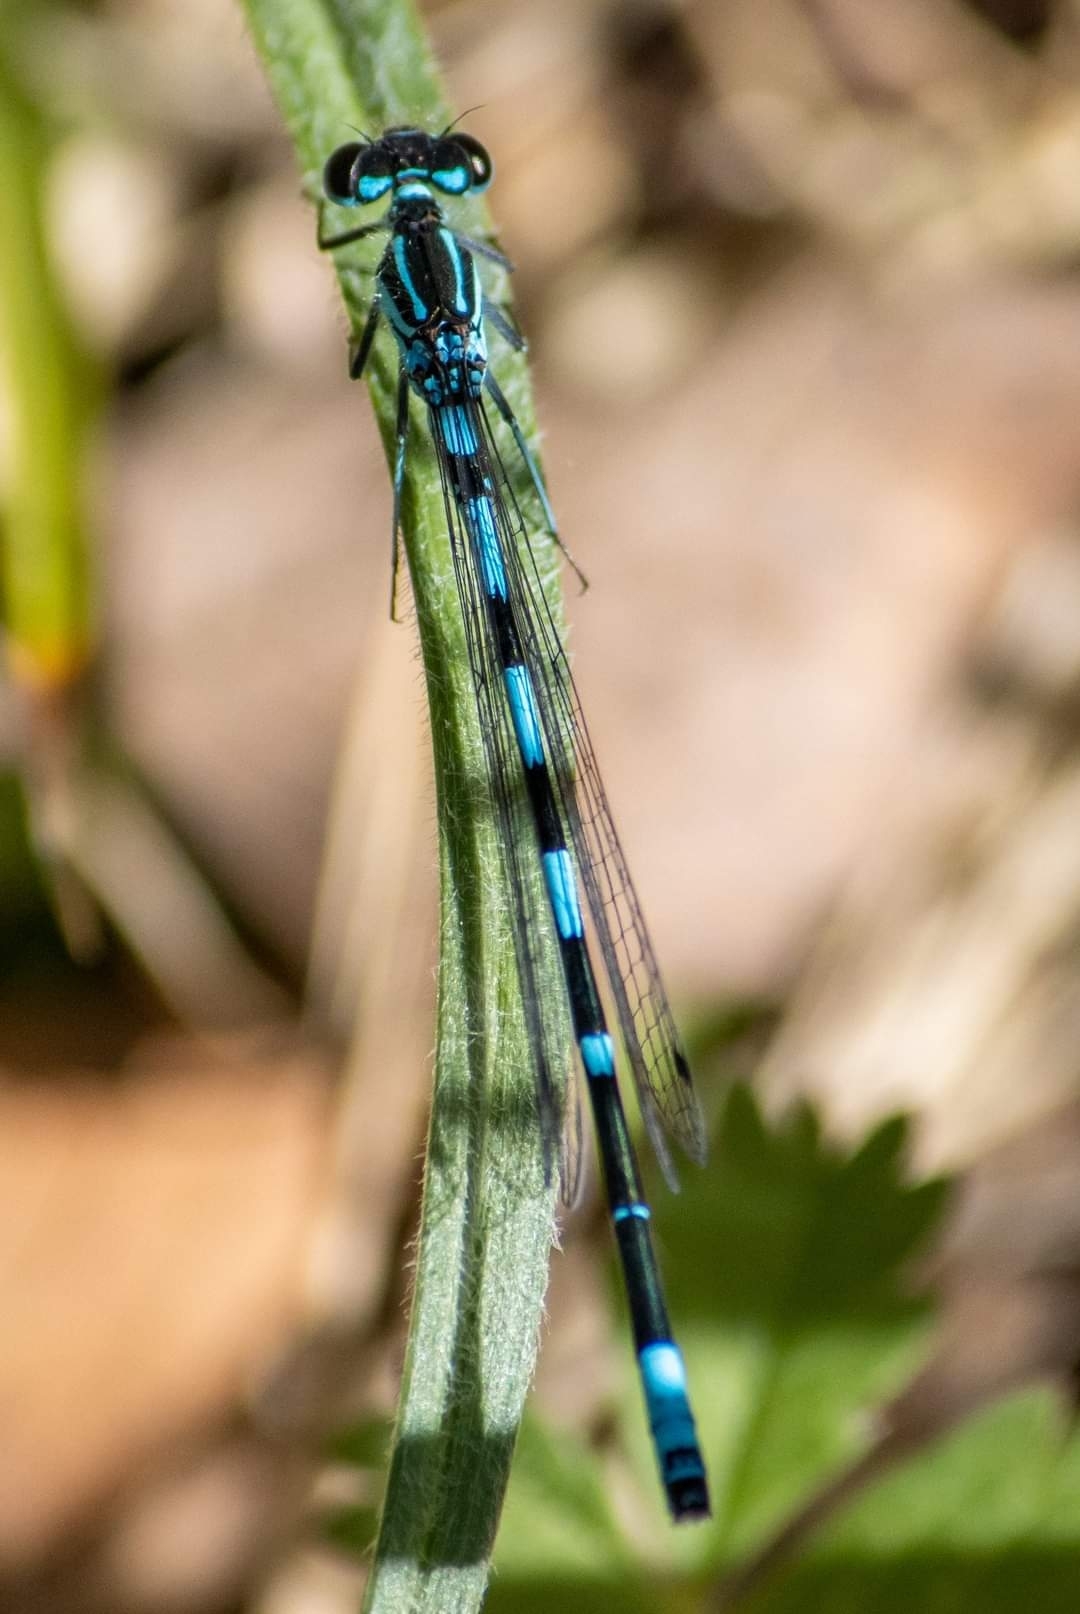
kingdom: Animalia
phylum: Arthropoda
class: Insecta
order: Odonata
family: Coenagrionidae
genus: Coenagrion
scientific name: Coenagrion pulchellum
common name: Variable bluet
